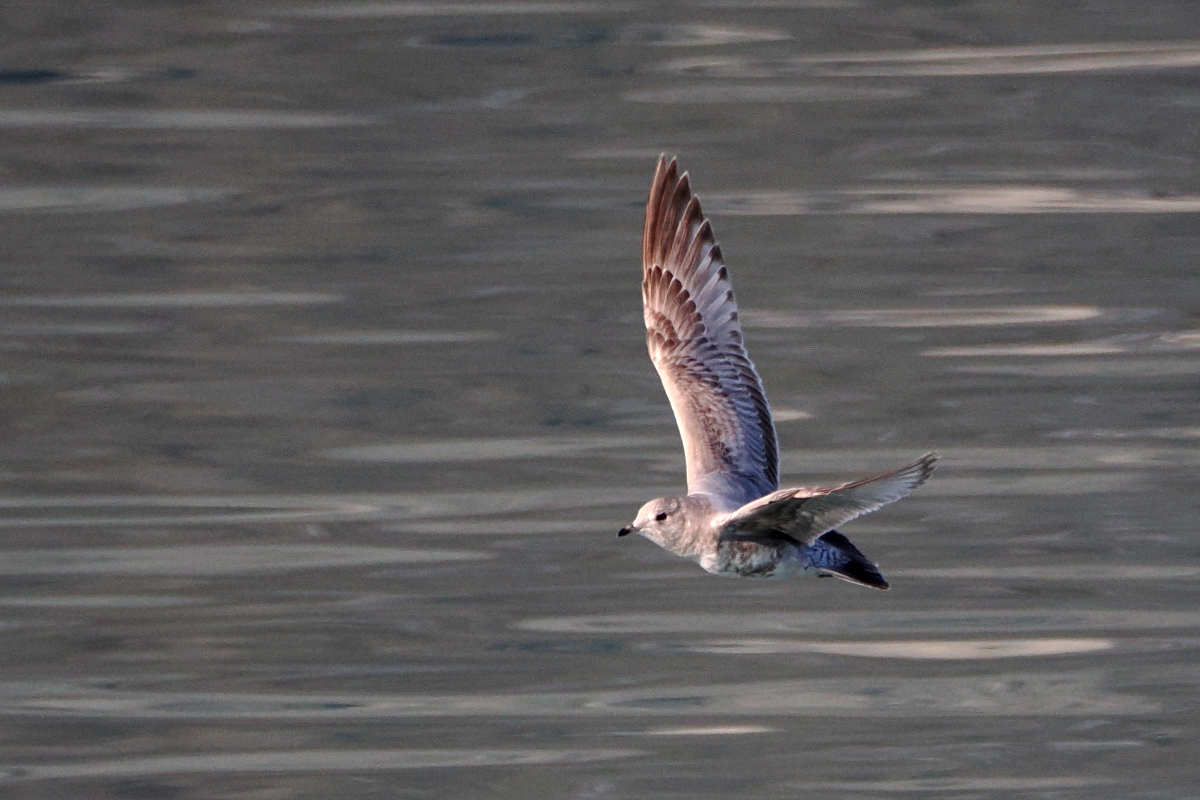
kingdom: Animalia
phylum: Chordata
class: Aves
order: Charadriiformes
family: Laridae
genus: Larus
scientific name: Larus brachyrhynchus
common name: Short-billed gull
